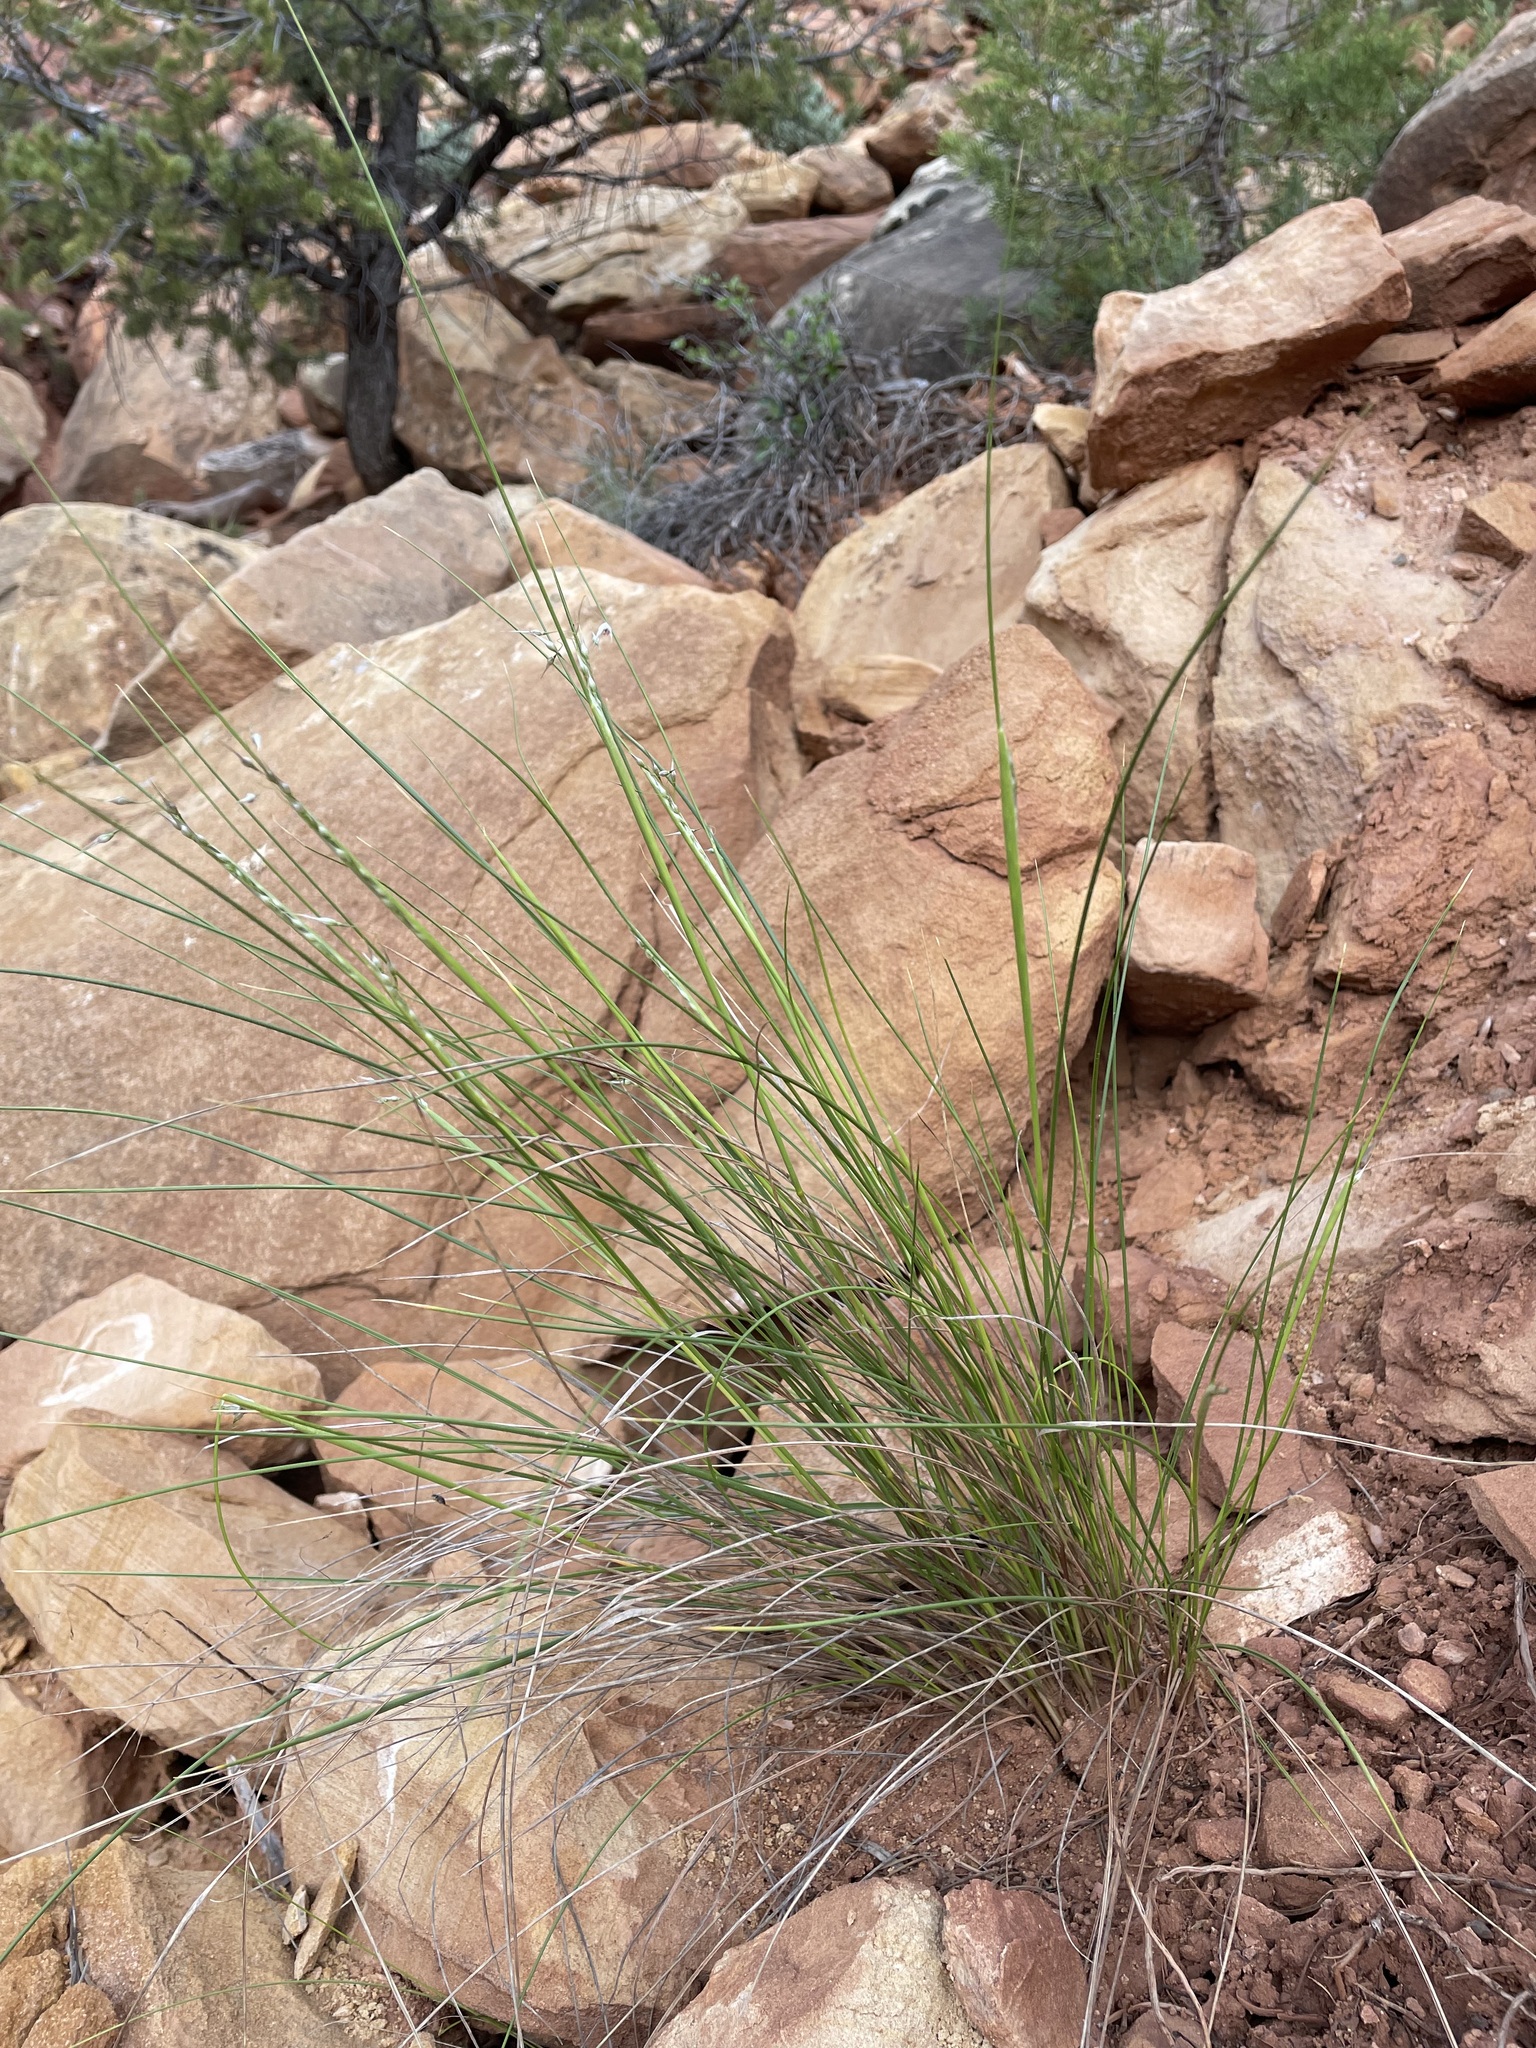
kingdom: Plantae
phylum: Tracheophyta
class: Liliopsida
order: Poales
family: Poaceae
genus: Eriocoma
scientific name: Eriocoma hymenoides
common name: Indian mountain ricegrass
